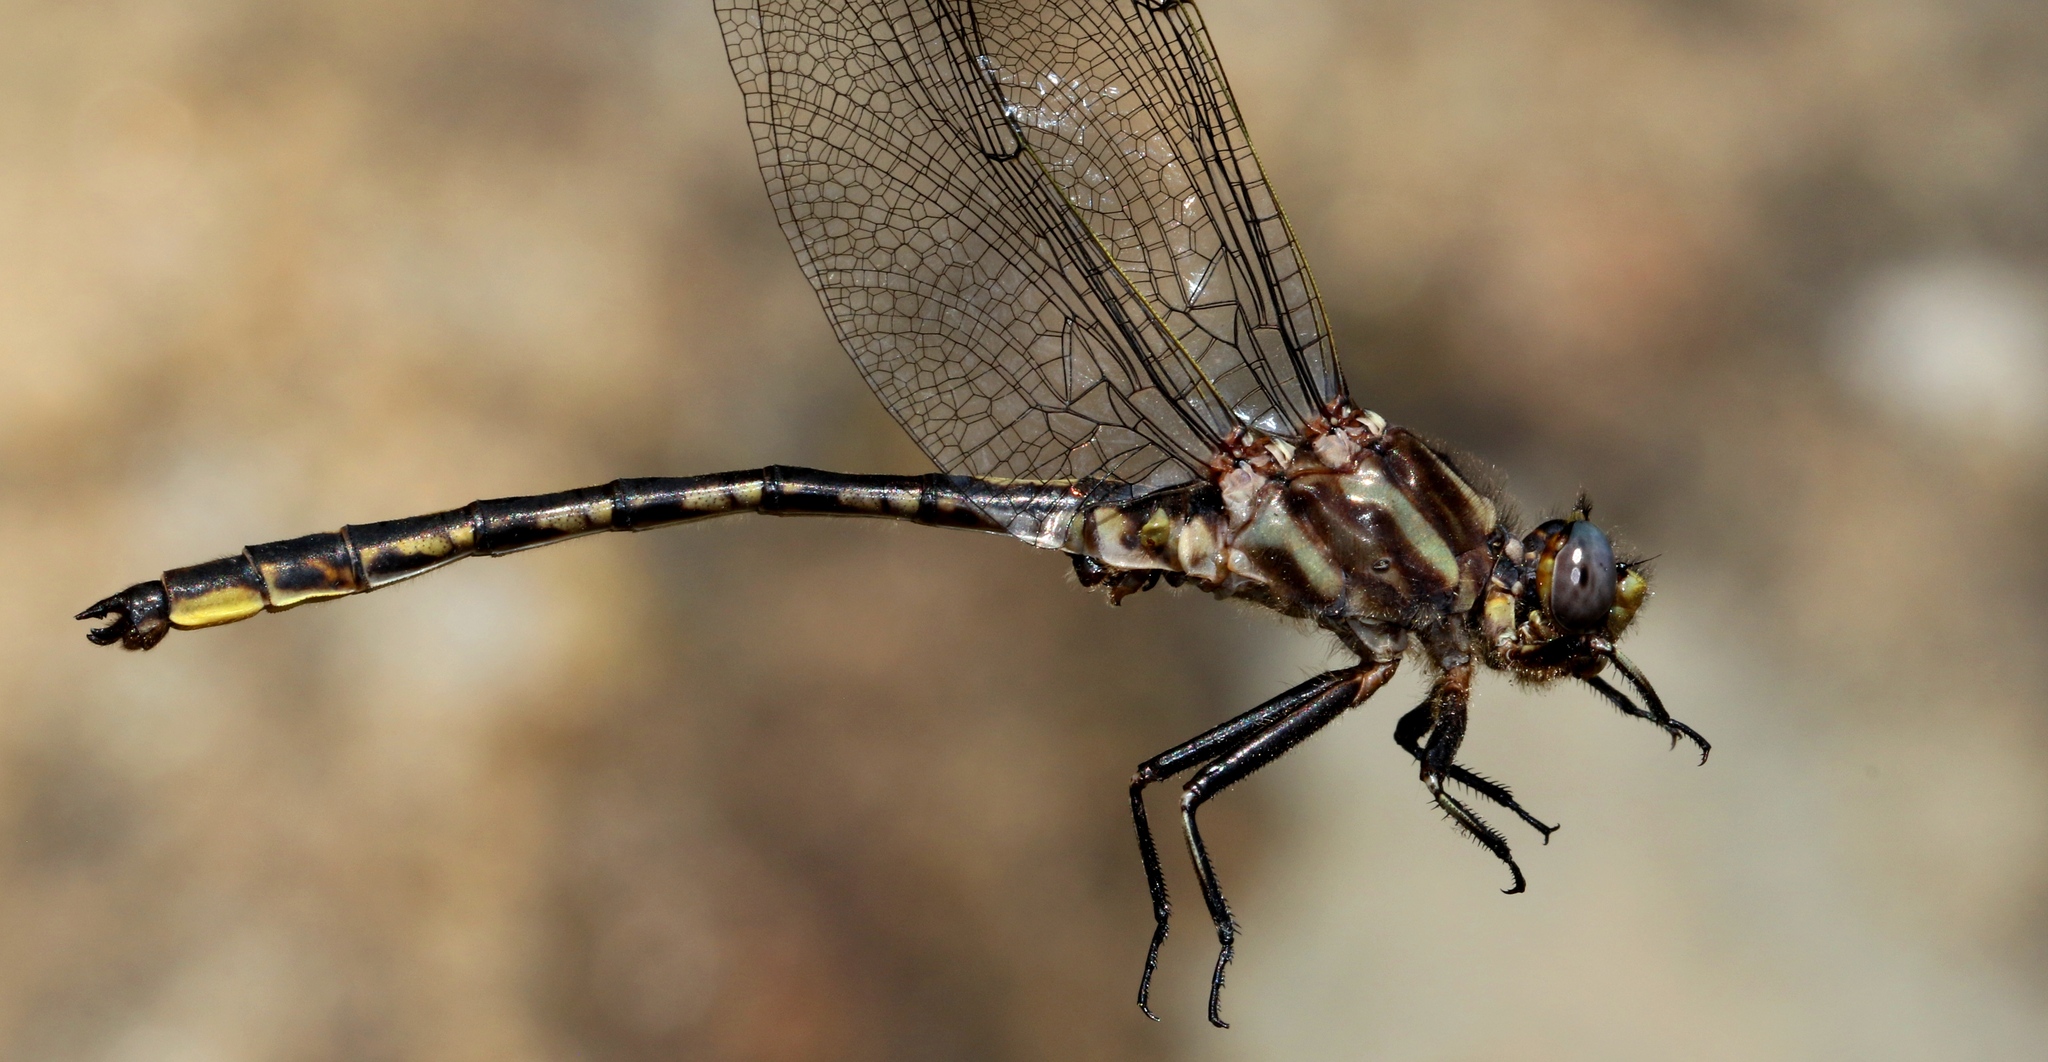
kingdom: Animalia
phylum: Arthropoda
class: Insecta
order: Odonata
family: Gomphidae
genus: Phanogomphus
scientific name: Phanogomphus spicatus
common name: Dusky clubtail
